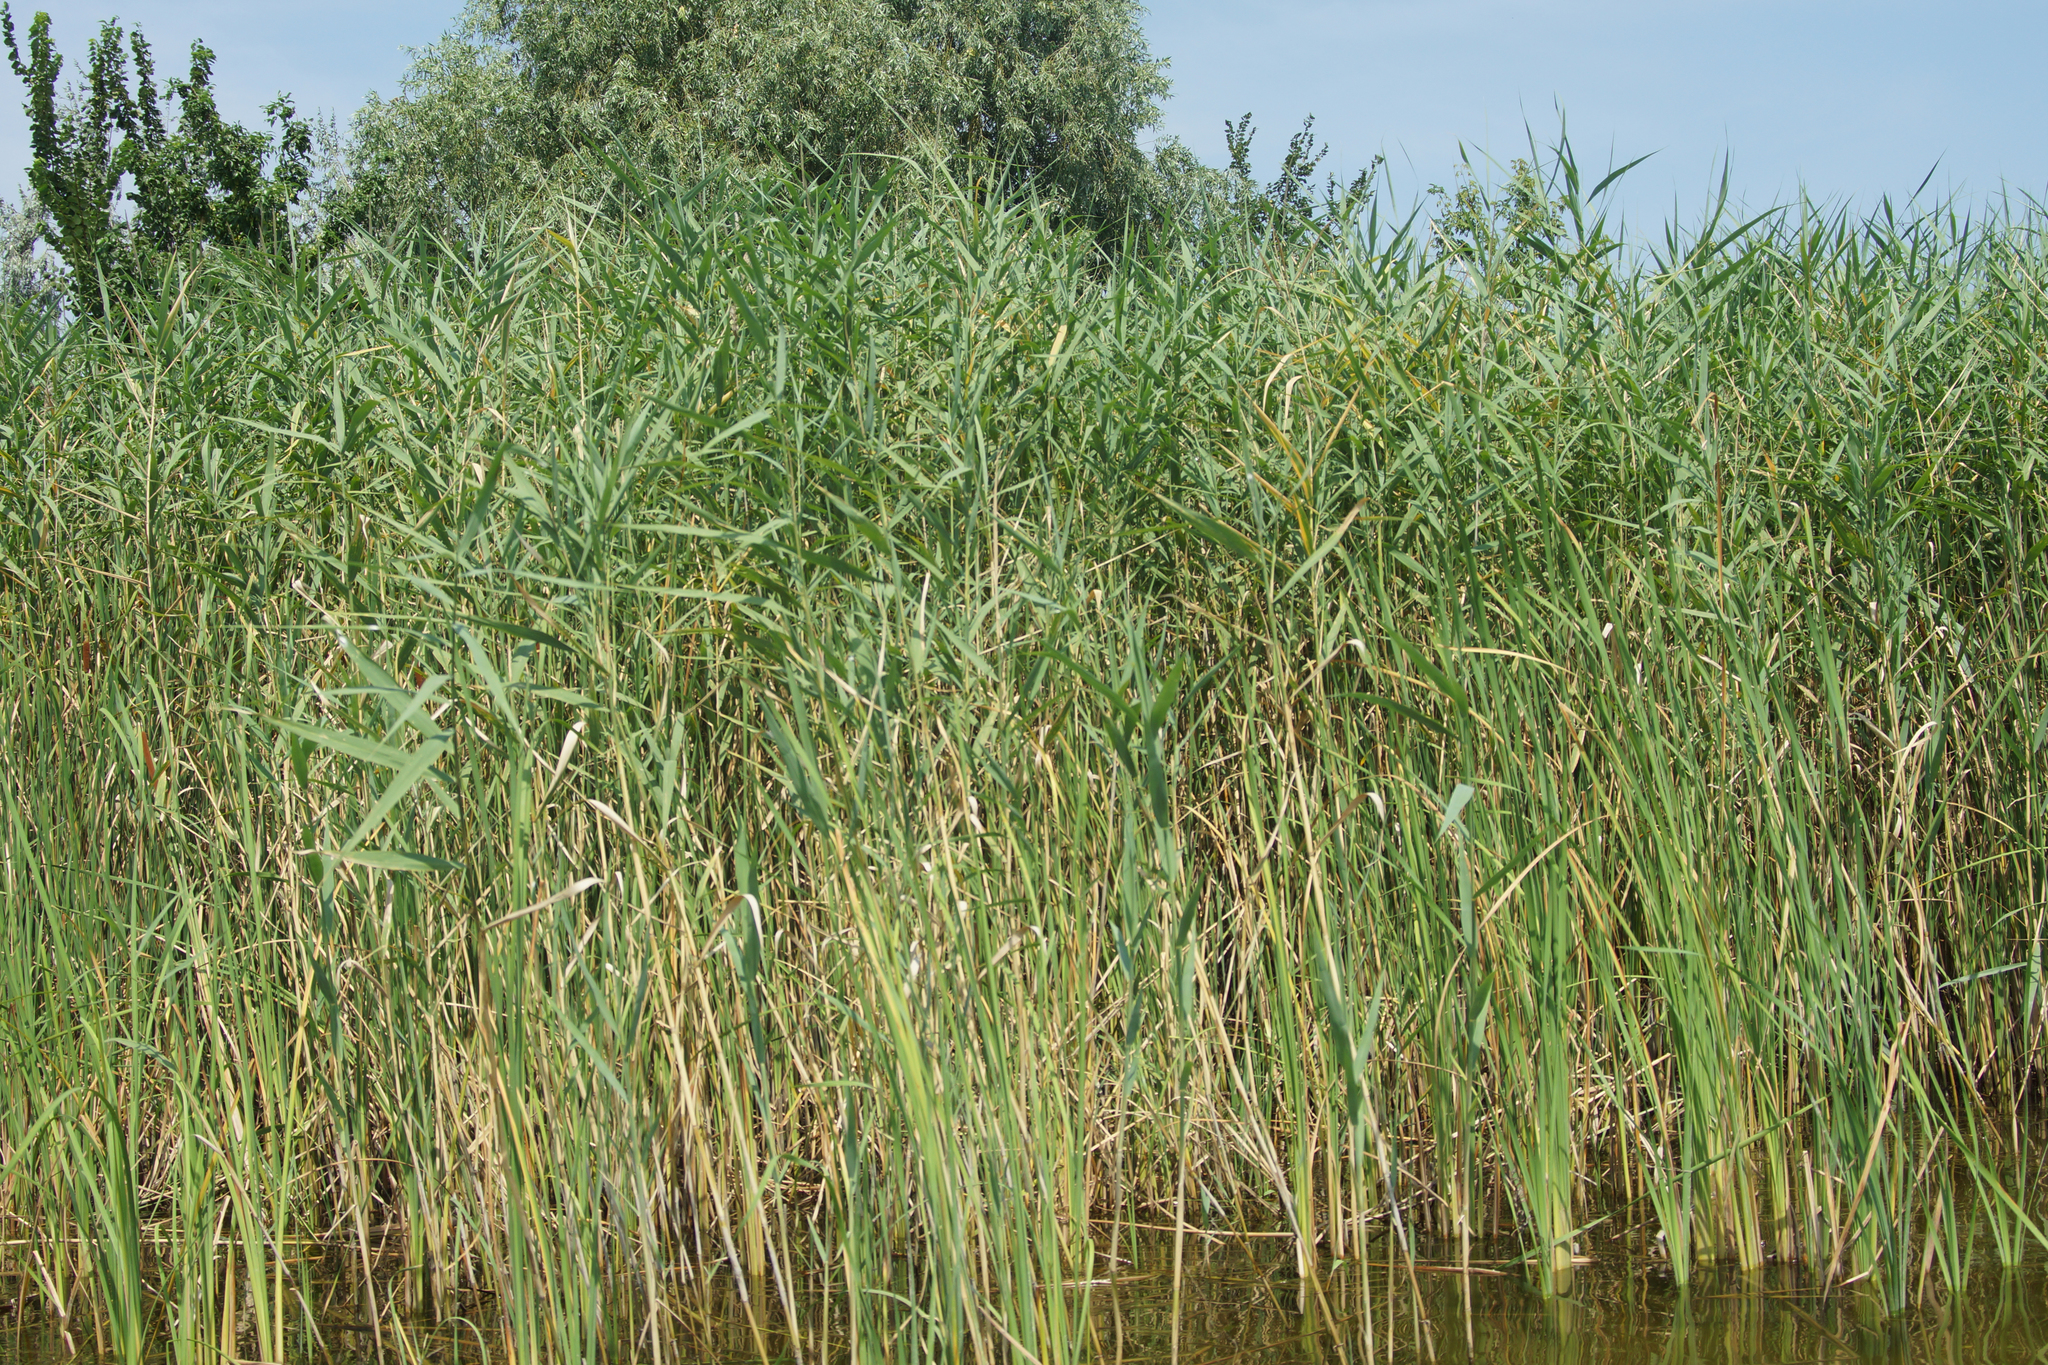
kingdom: Plantae
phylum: Tracheophyta
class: Liliopsida
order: Poales
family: Poaceae
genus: Phragmites
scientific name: Phragmites australis
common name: Common reed
